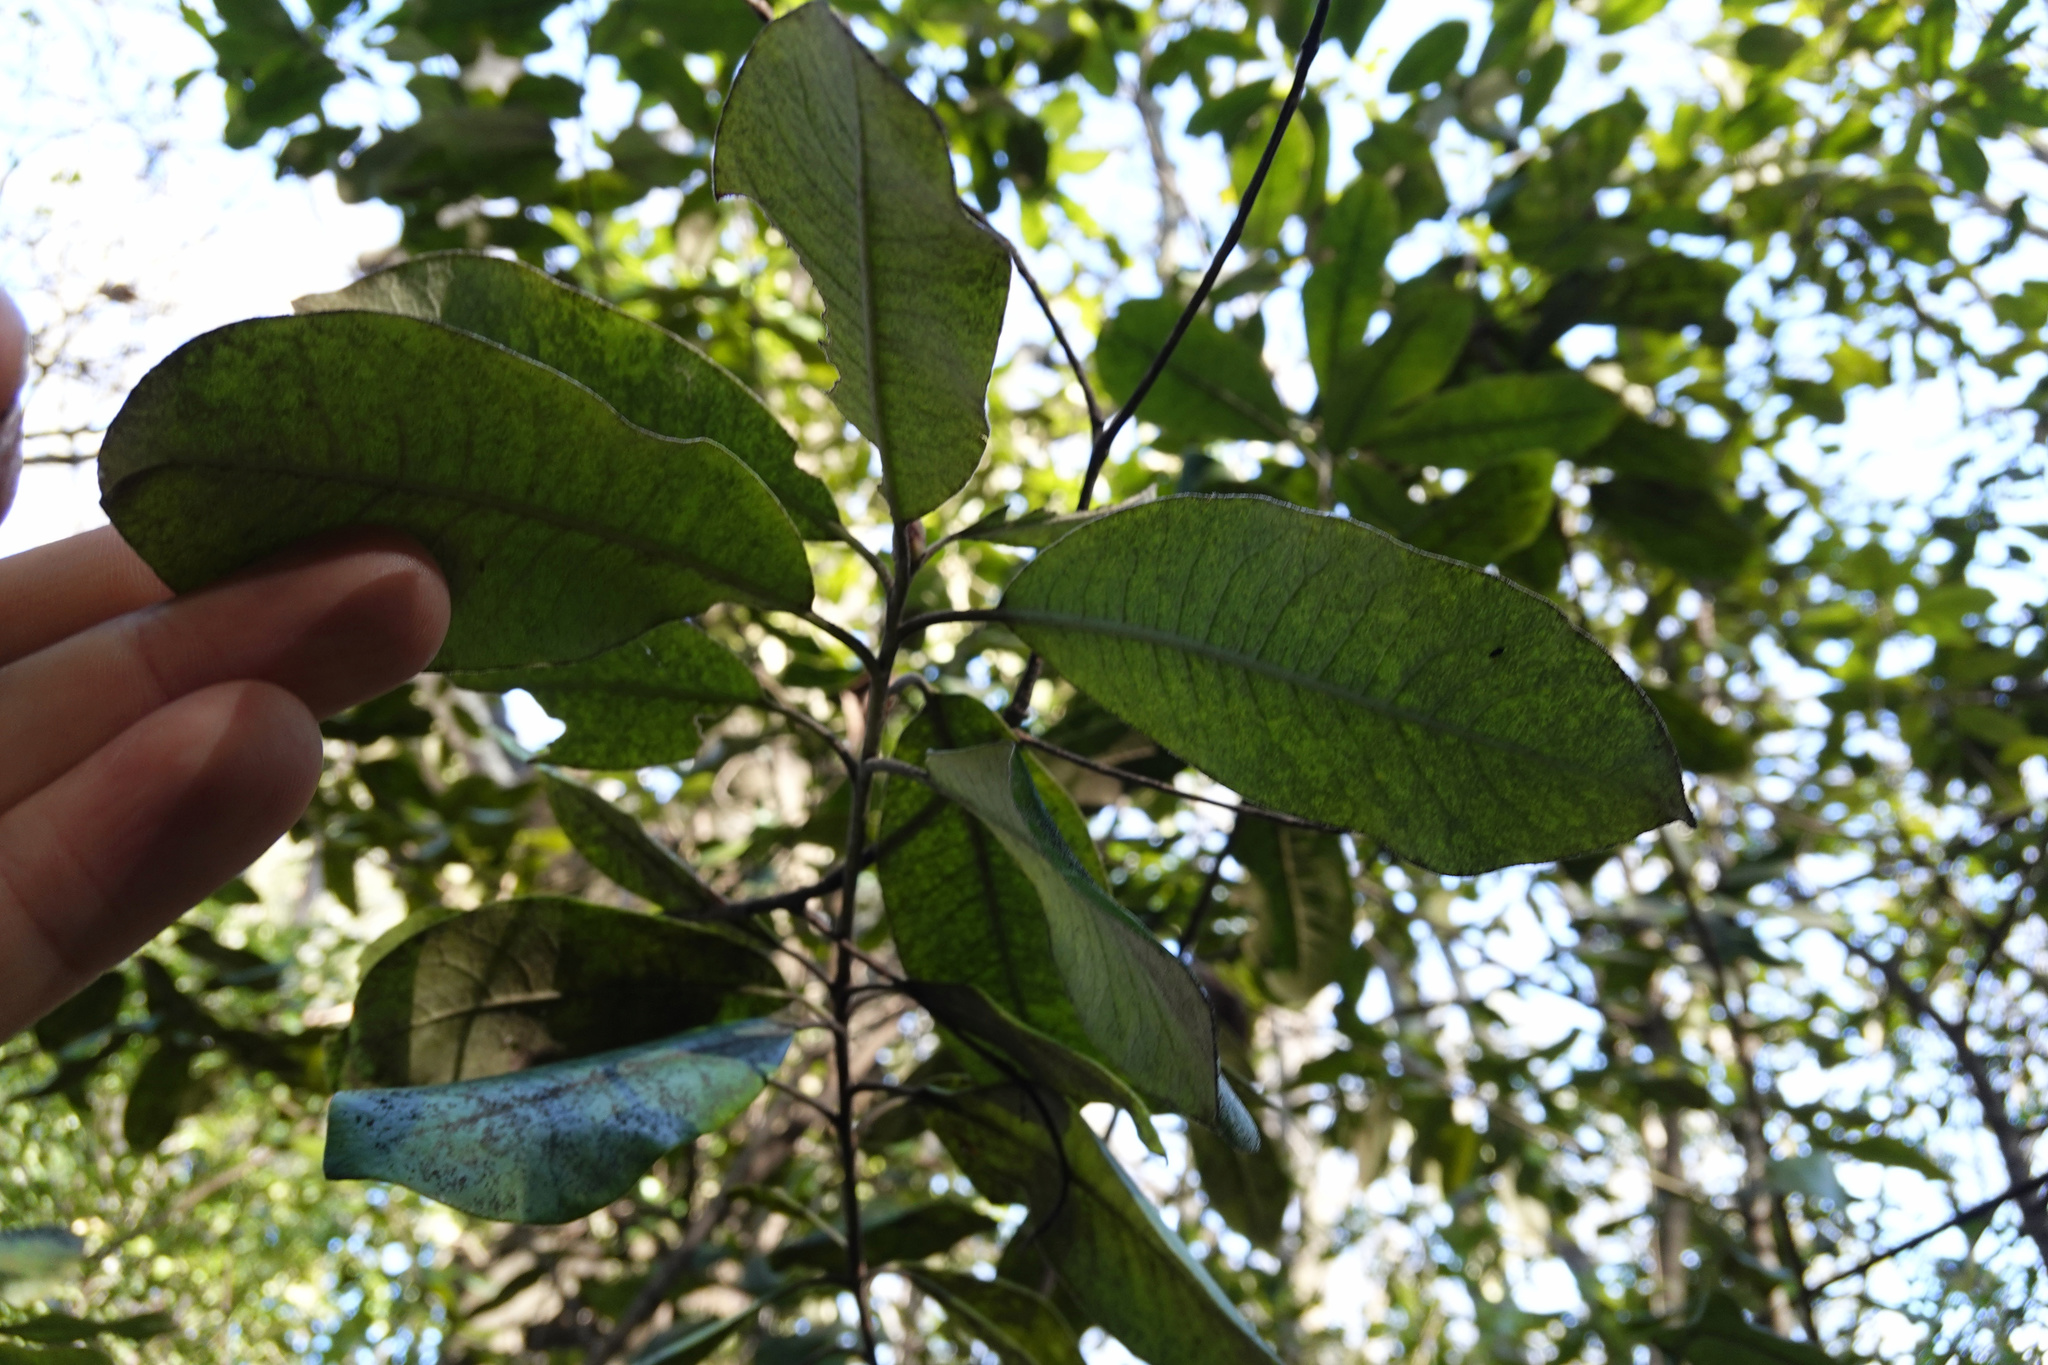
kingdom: Plantae
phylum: Tracheophyta
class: Magnoliopsida
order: Apiales
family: Pittosporaceae
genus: Pittosporum
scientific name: Pittosporum ralphii
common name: Ralph's desertwillow
